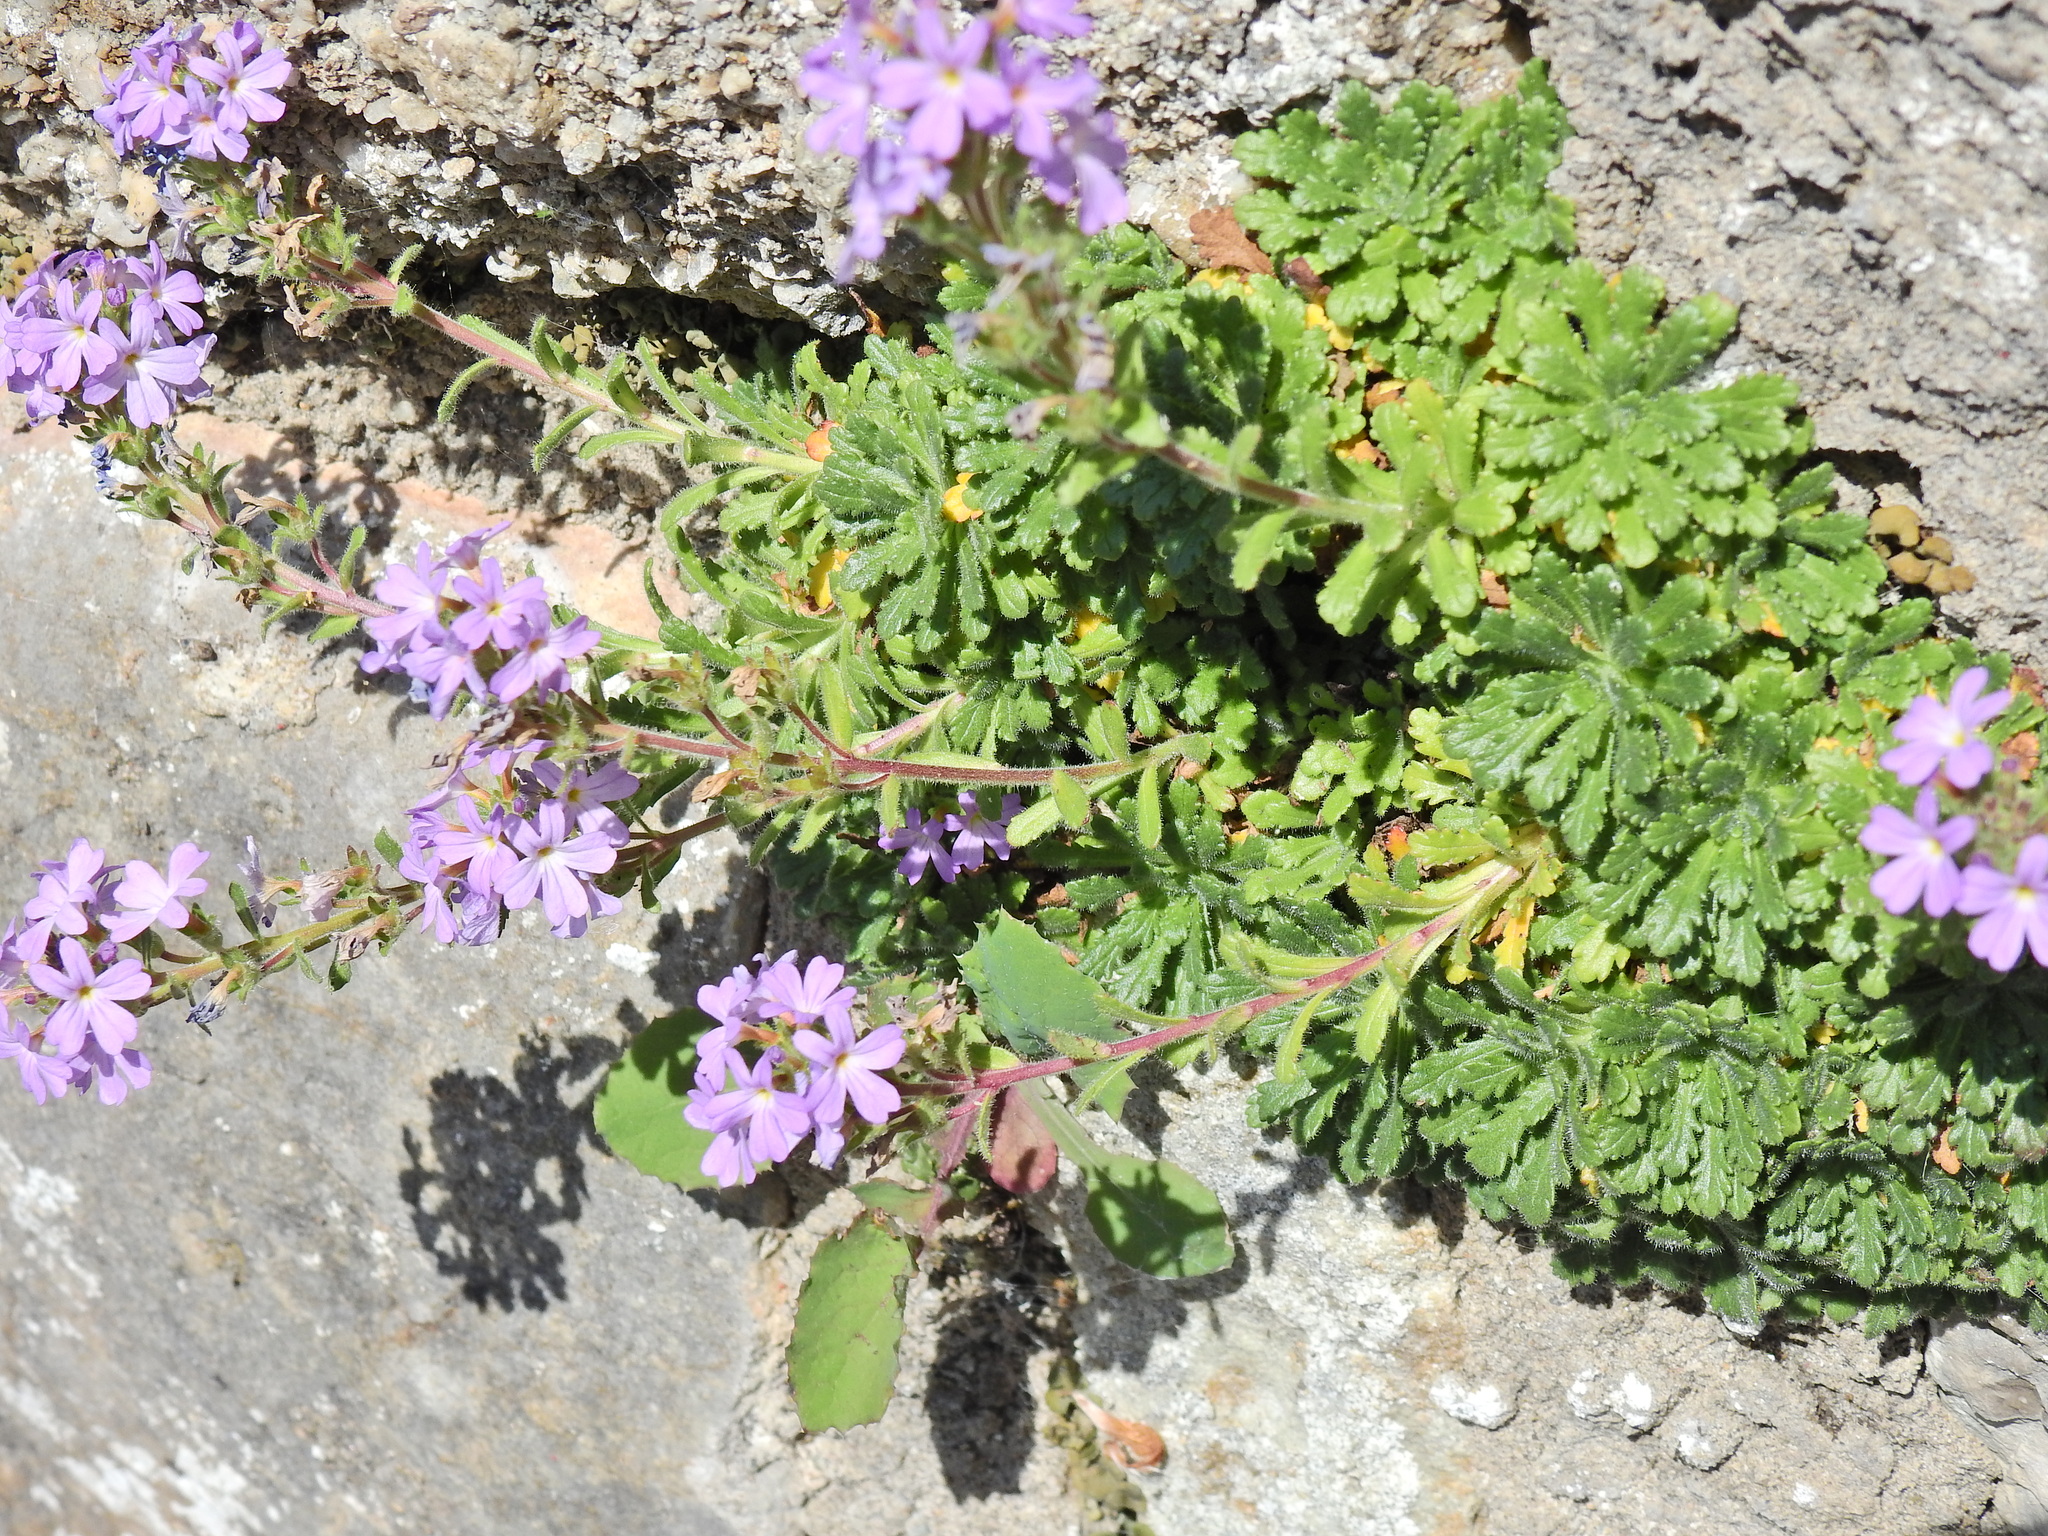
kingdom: Plantae
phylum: Tracheophyta
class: Magnoliopsida
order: Lamiales
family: Plantaginaceae
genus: Erinus
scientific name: Erinus alpinus
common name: Fairy foxglove
